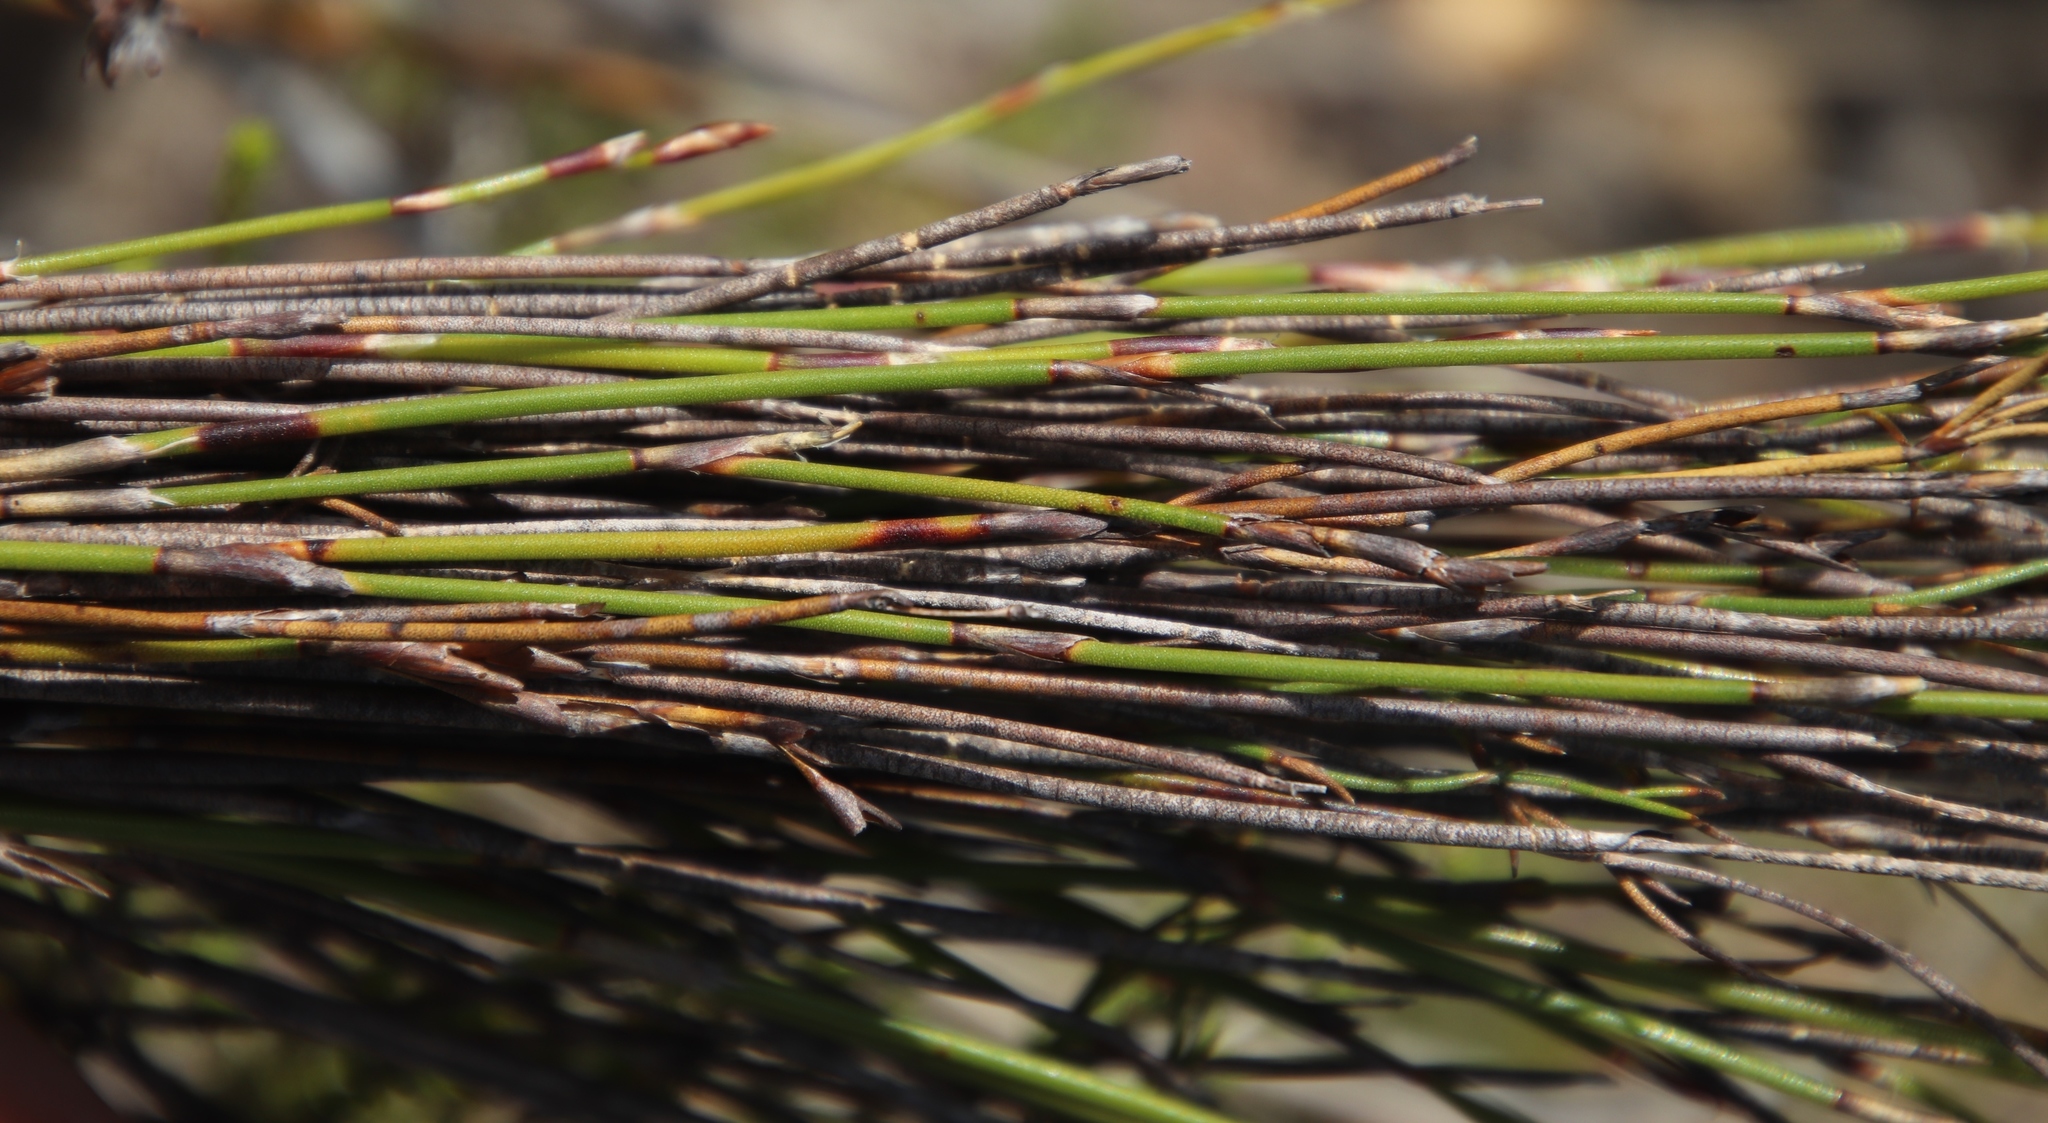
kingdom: Plantae
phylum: Tracheophyta
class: Liliopsida
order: Poales
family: Restionaceae
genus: Restio
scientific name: Restio triticeus
